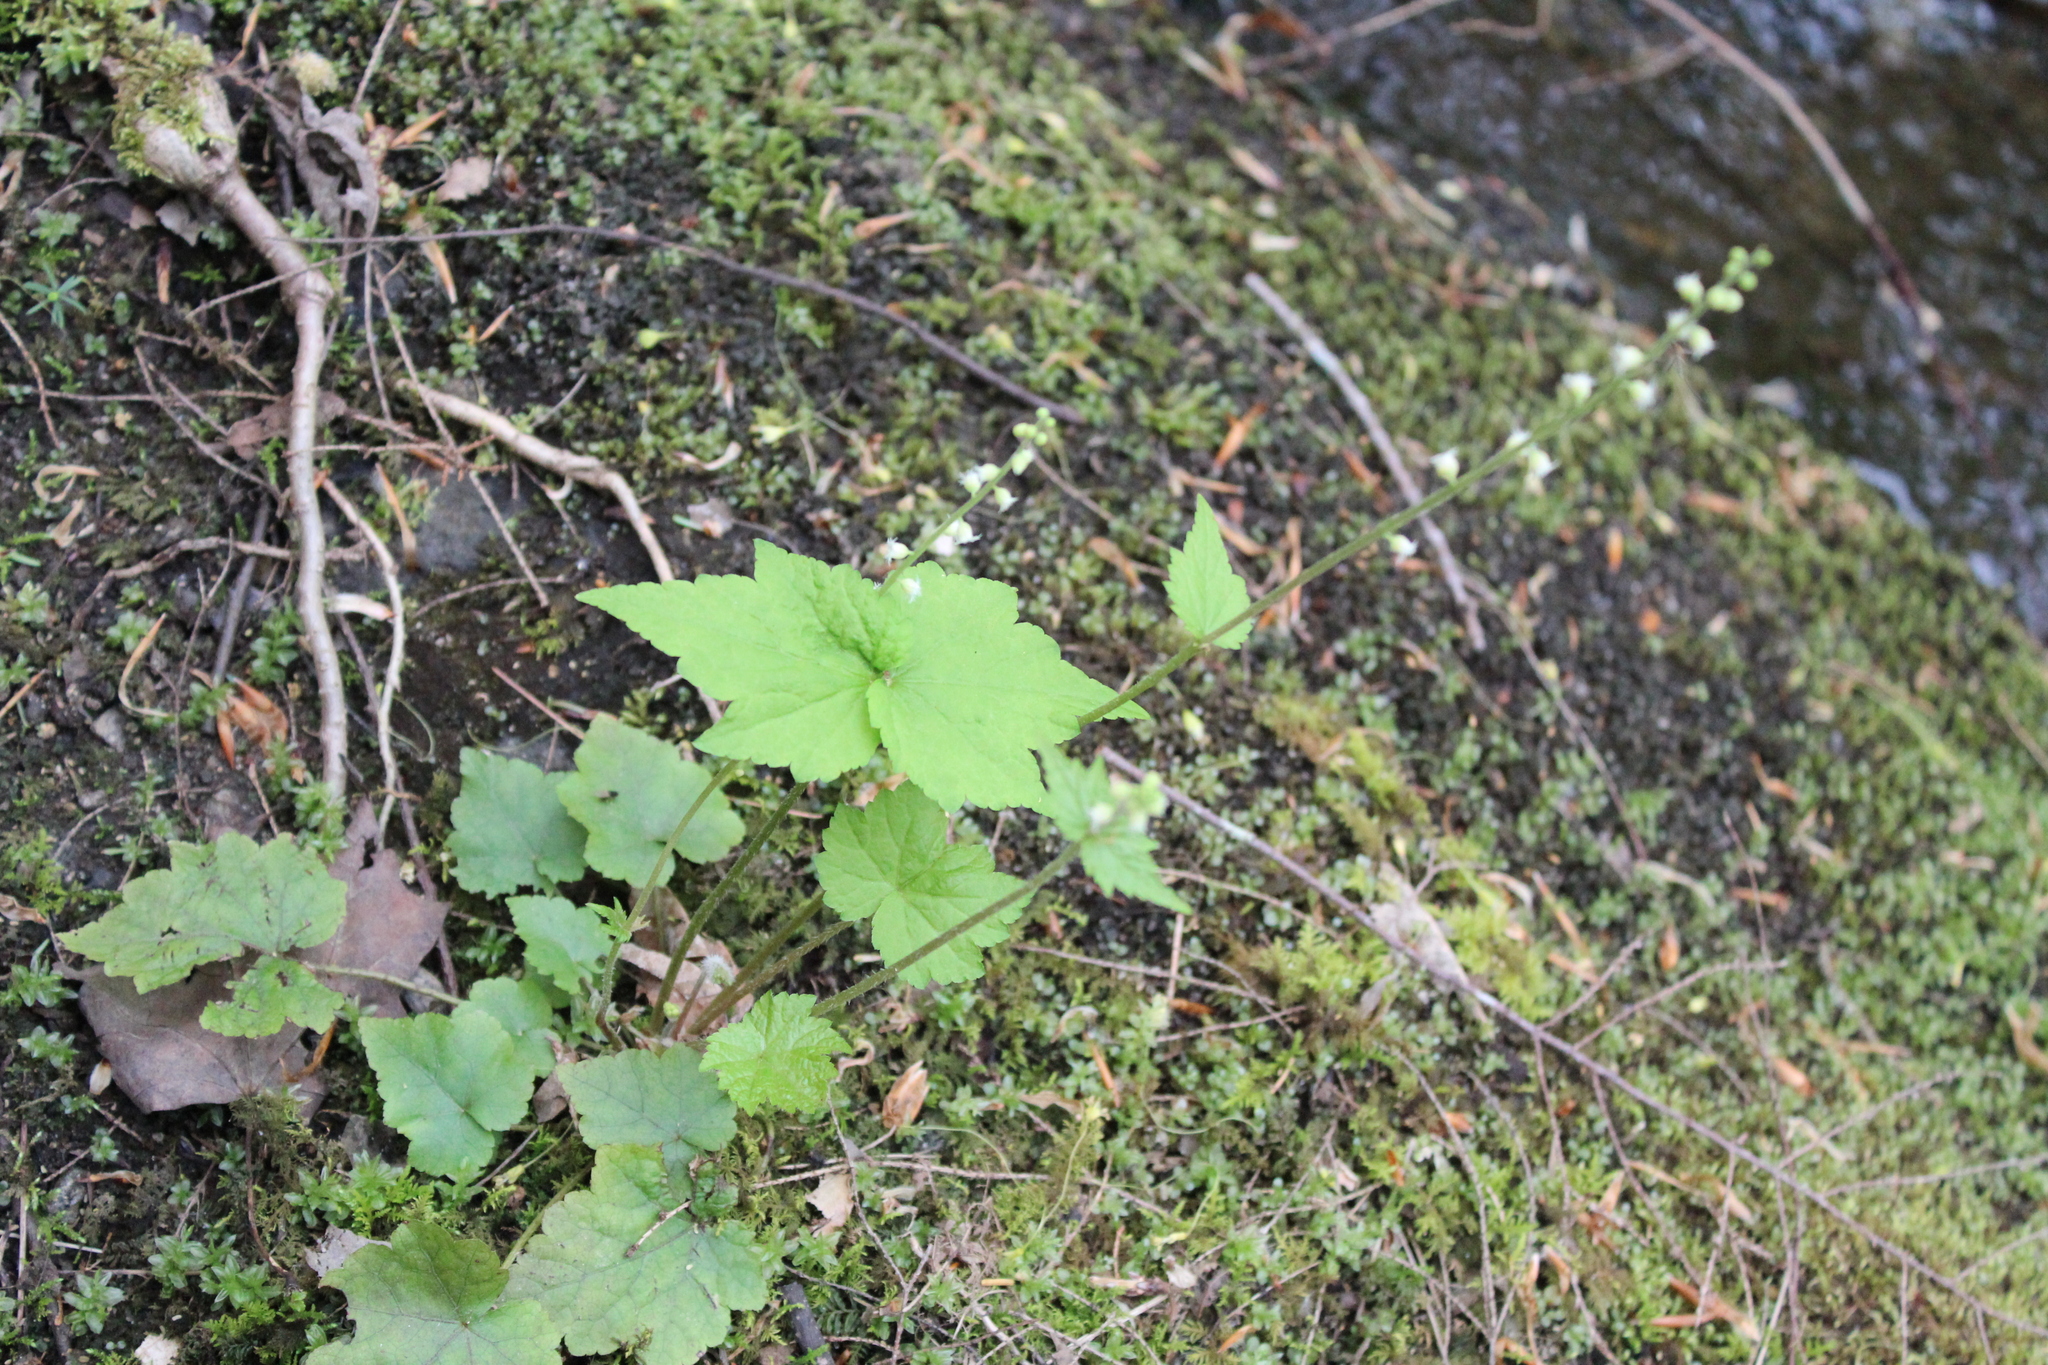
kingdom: Plantae
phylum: Tracheophyta
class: Magnoliopsida
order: Saxifragales
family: Saxifragaceae
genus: Mitella
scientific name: Mitella diphylla
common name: Coolwort
